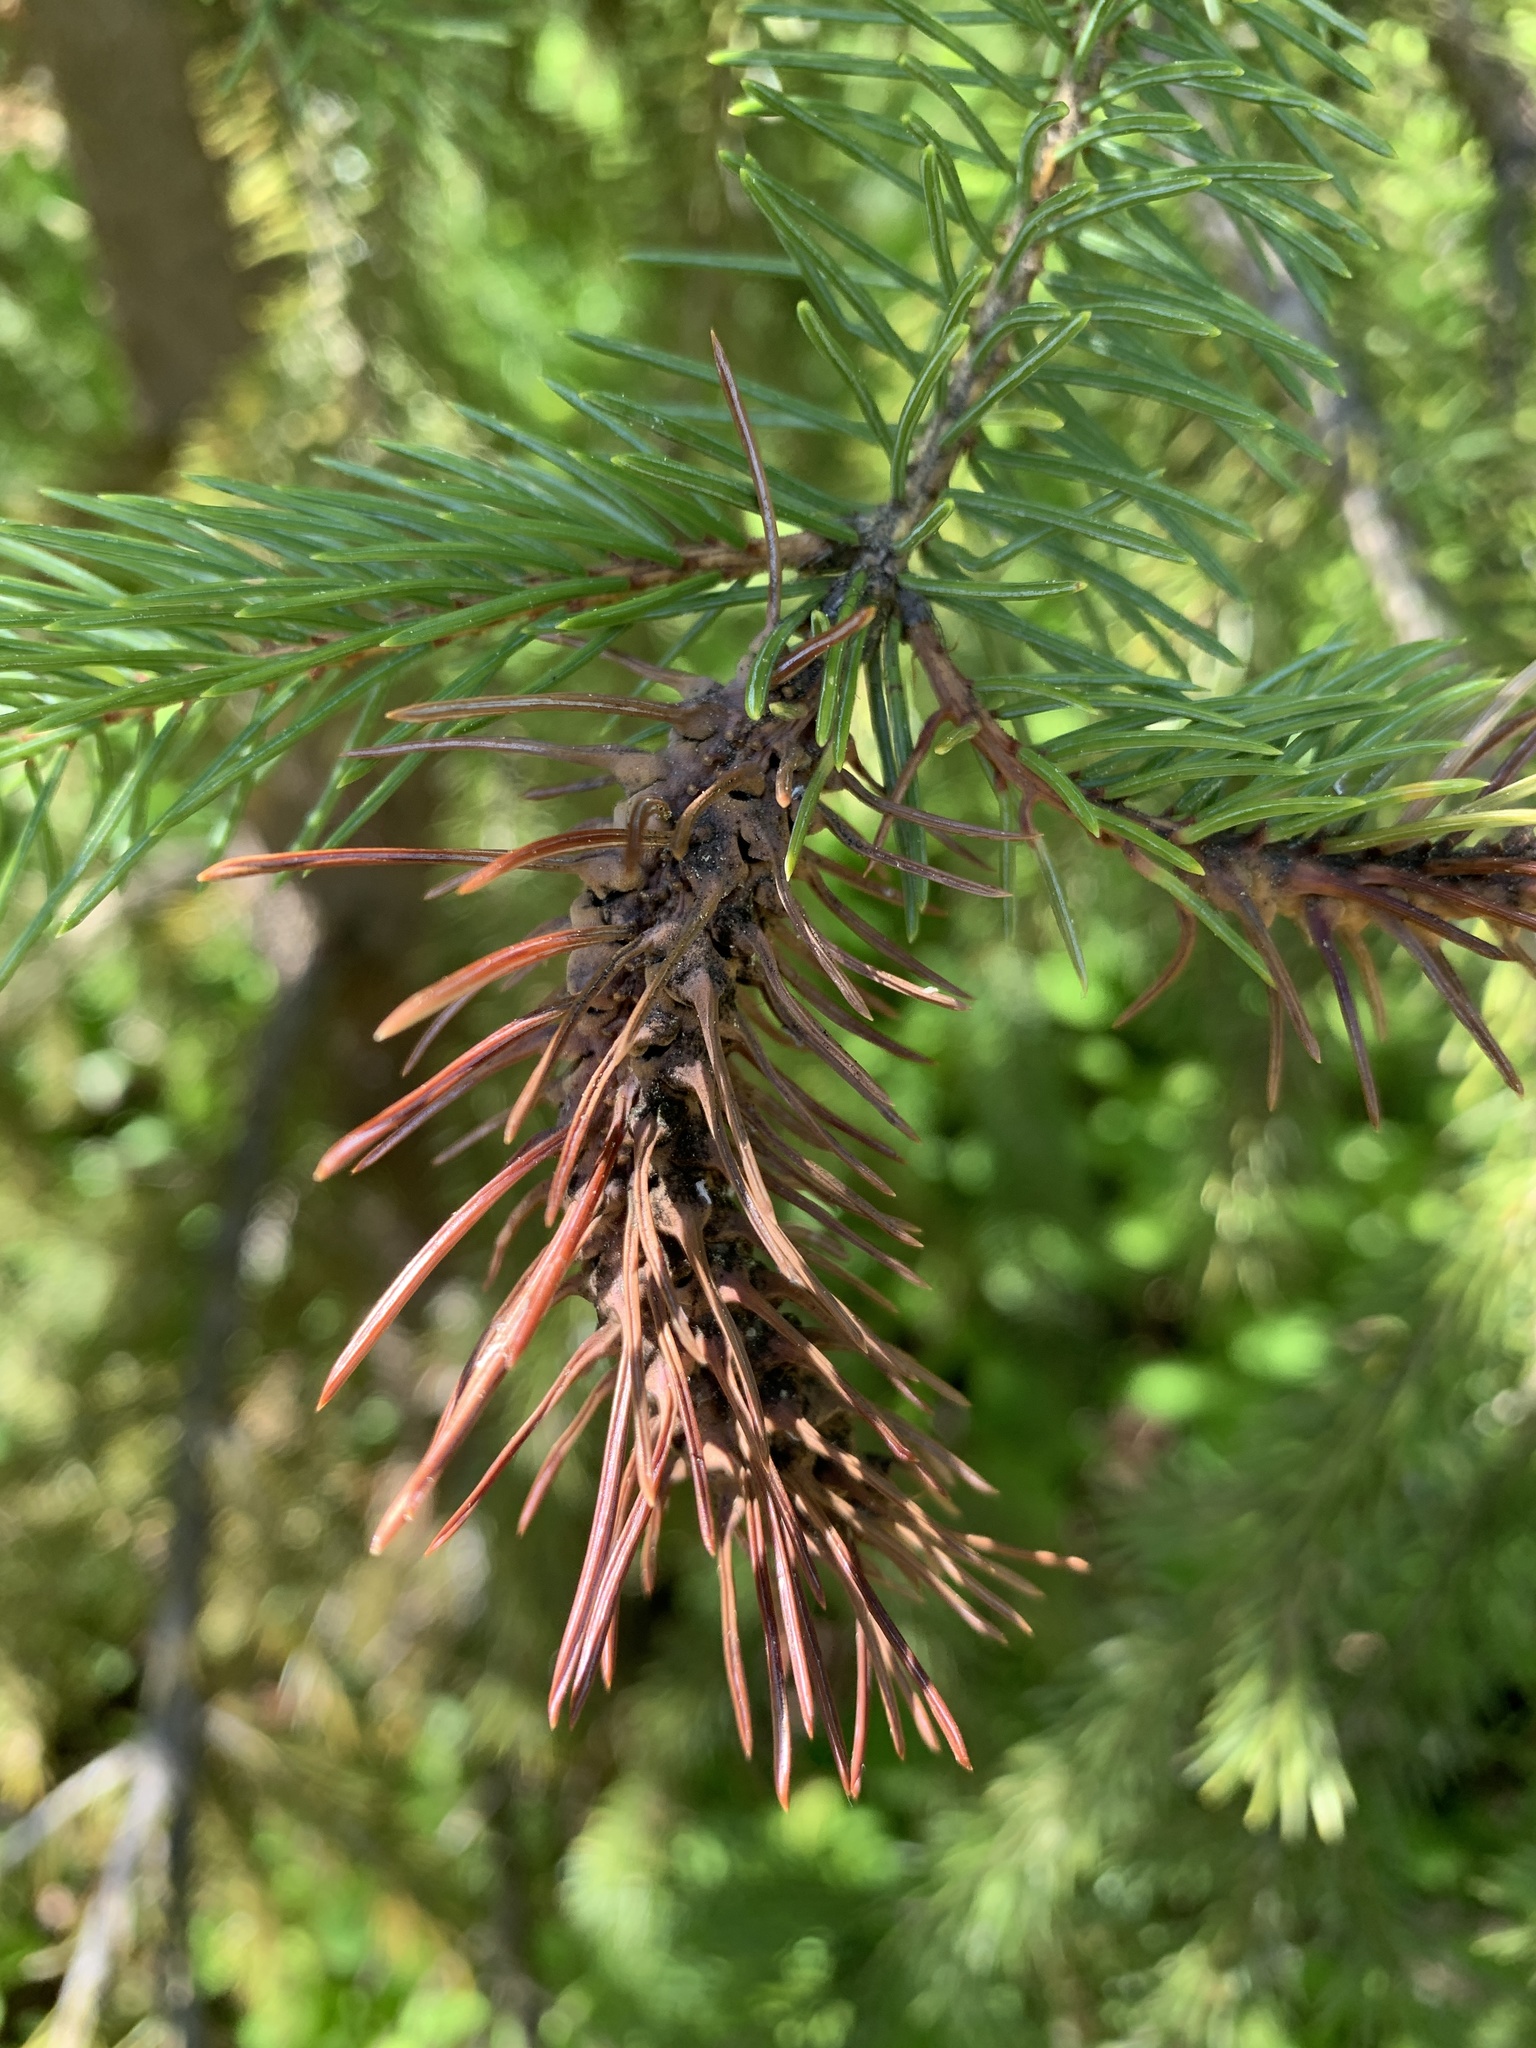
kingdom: Animalia
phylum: Arthropoda
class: Insecta
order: Hemiptera
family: Adelgidae
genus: Adelges
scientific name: Adelges cooleyi
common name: Cooley spruce gall adelgid
